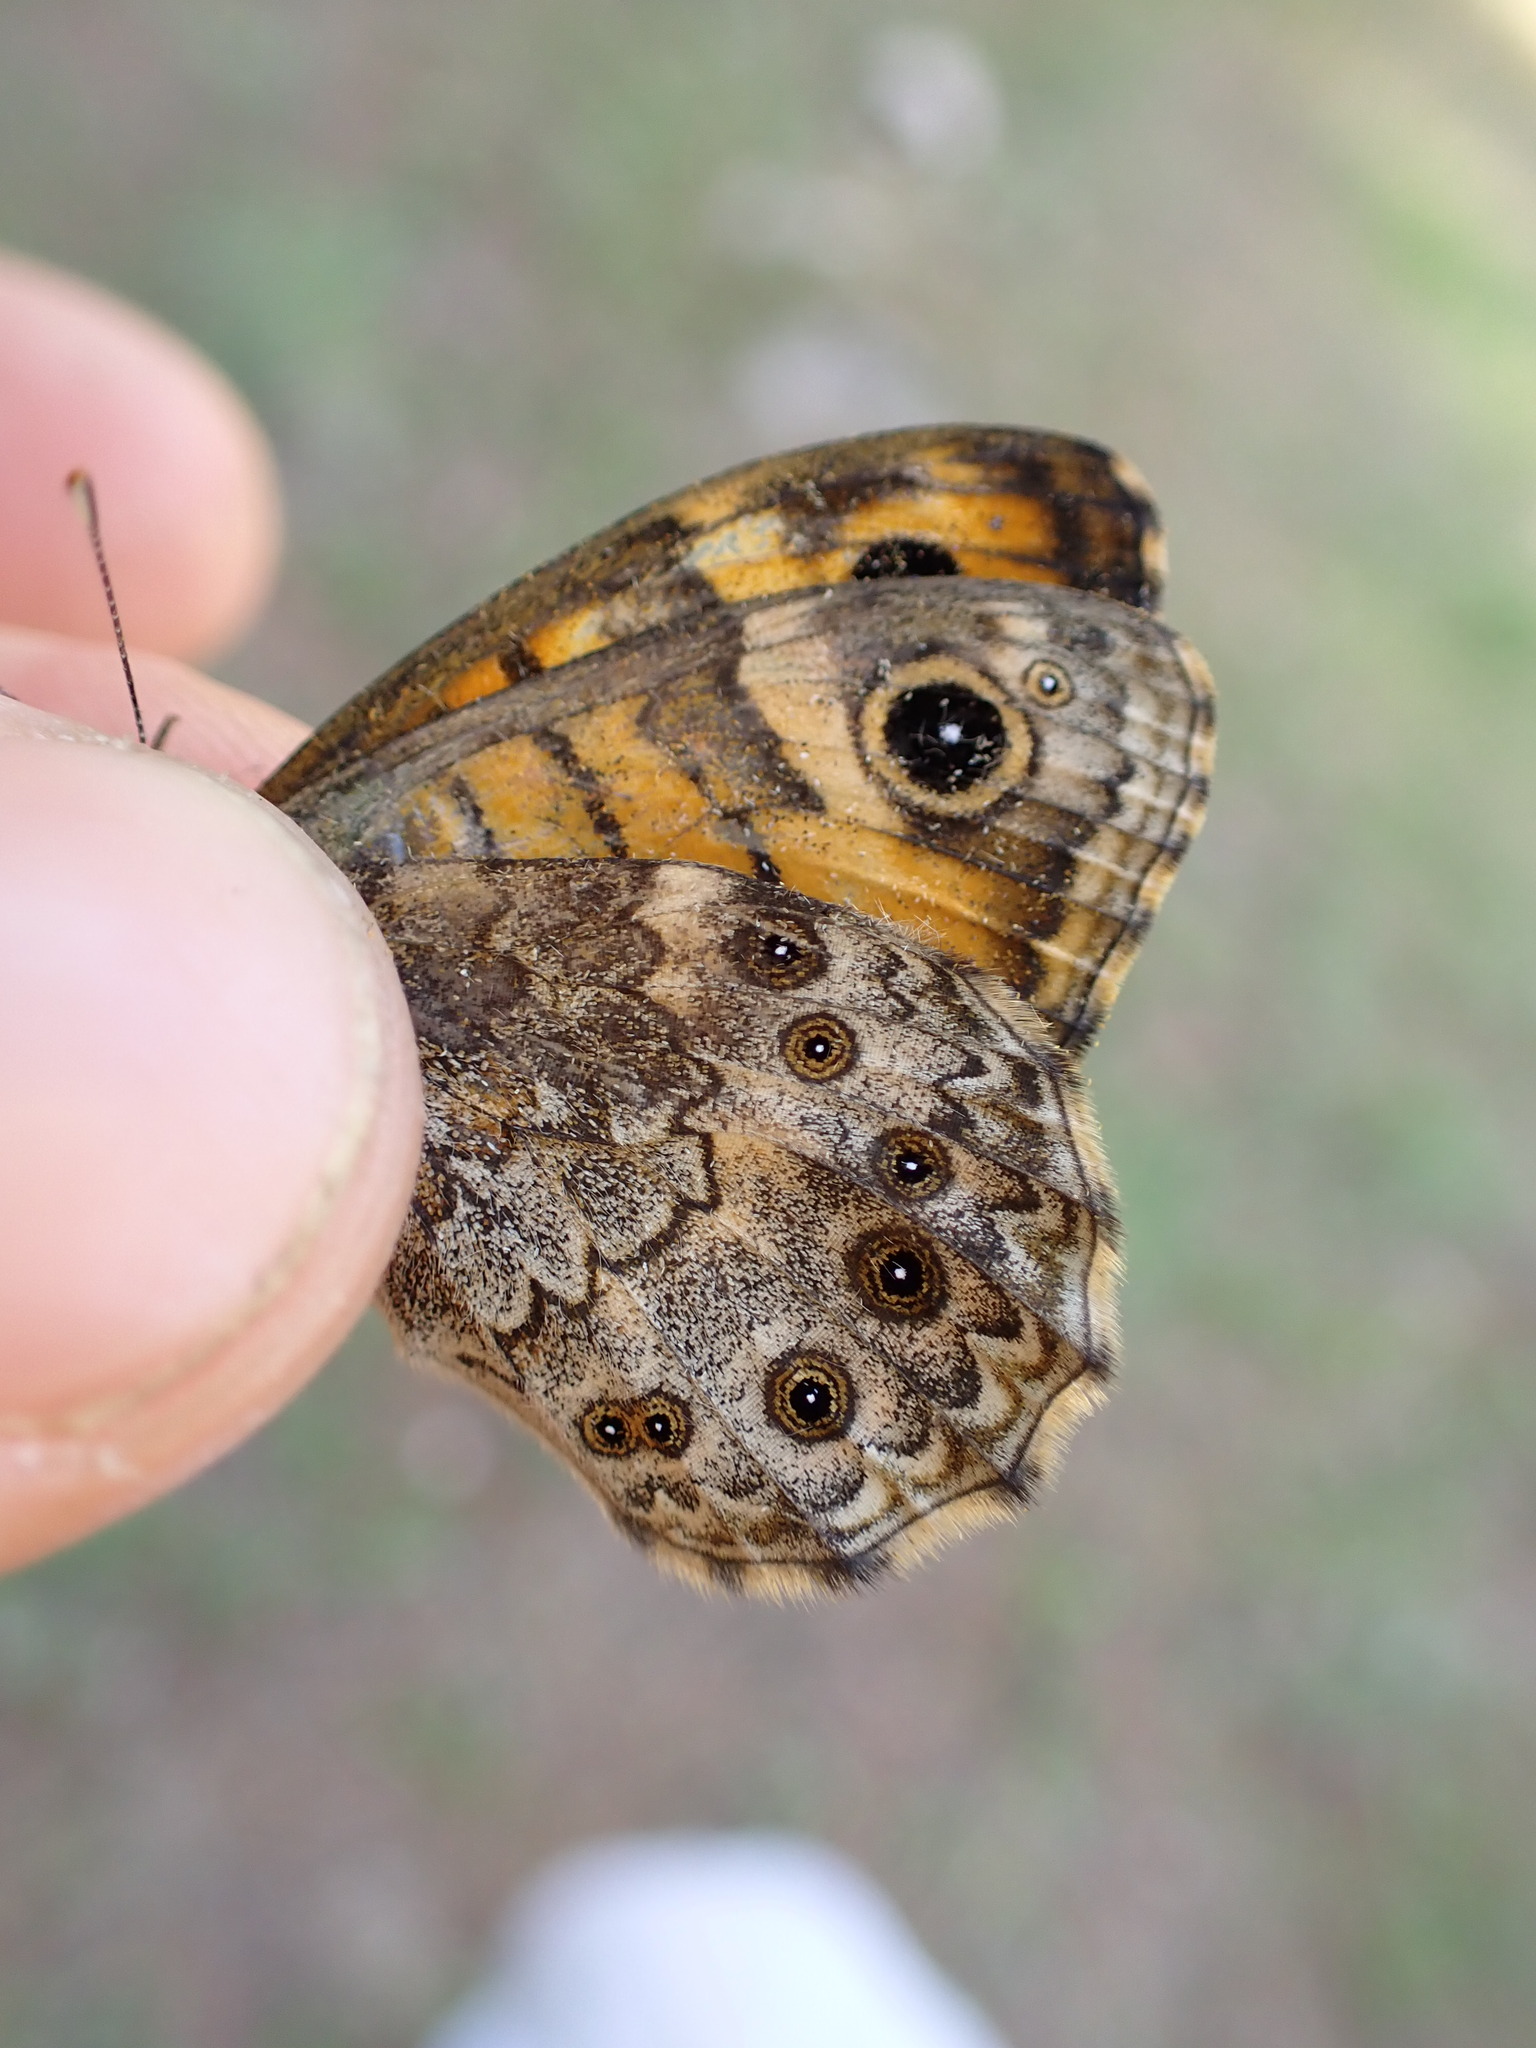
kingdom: Animalia
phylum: Arthropoda
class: Insecta
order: Lepidoptera
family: Nymphalidae
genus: Pararge
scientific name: Pararge Lasiommata megera
